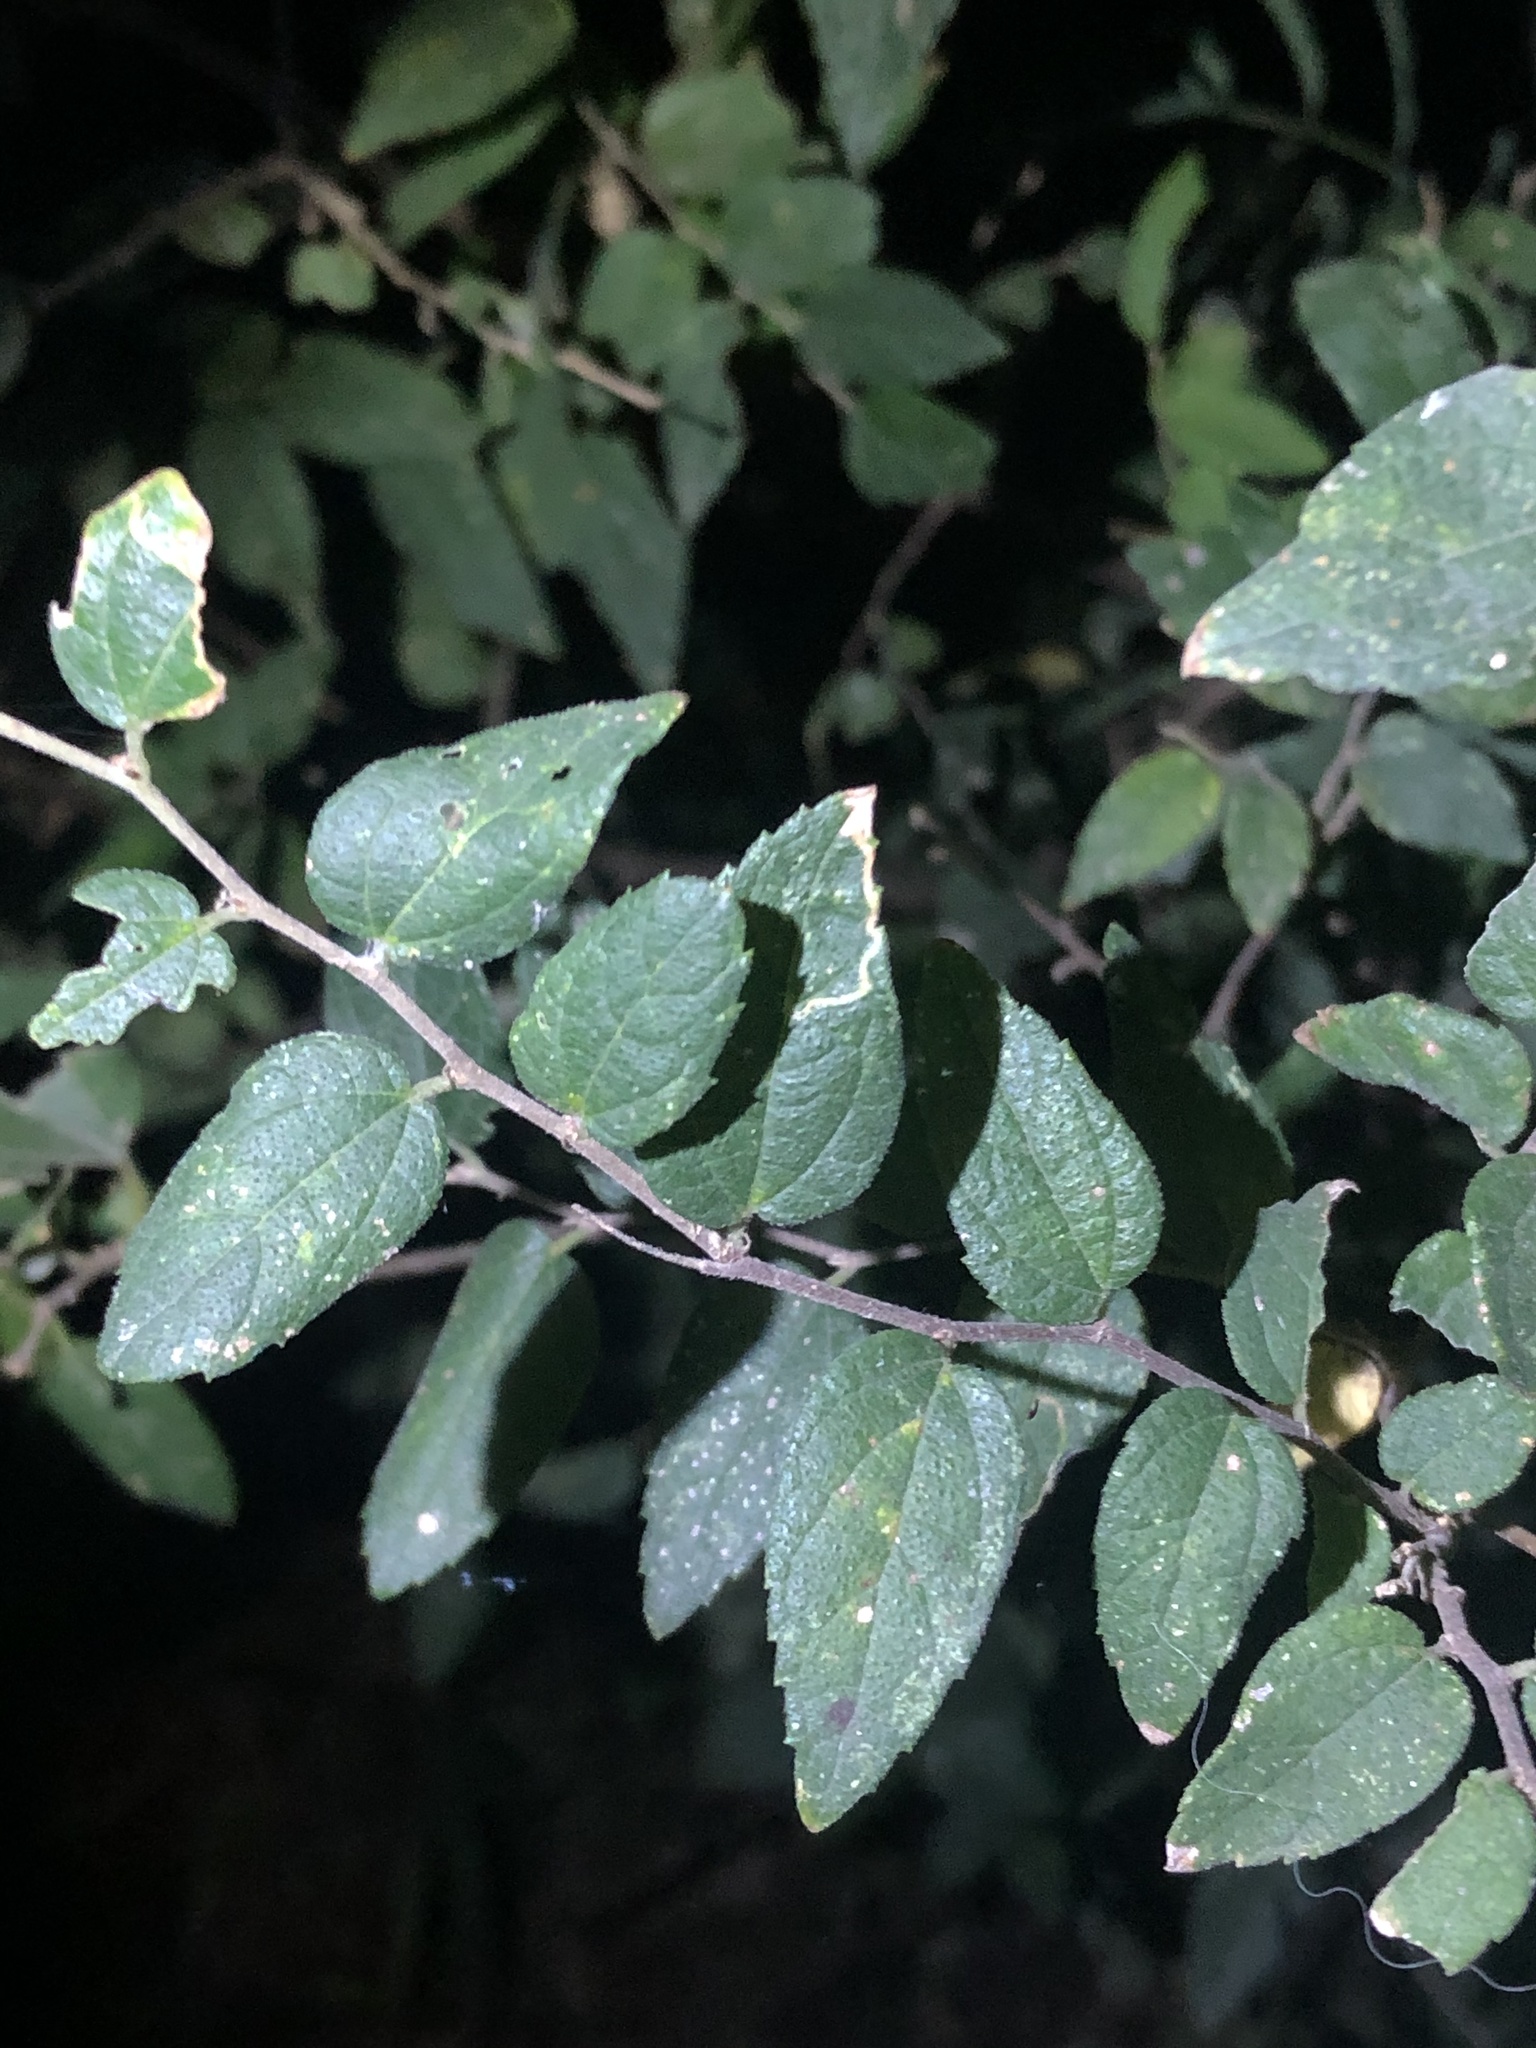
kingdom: Plantae
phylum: Tracheophyta
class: Magnoliopsida
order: Rosales
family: Cannabaceae
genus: Celtis
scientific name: Celtis laevigata
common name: Sugarberry
